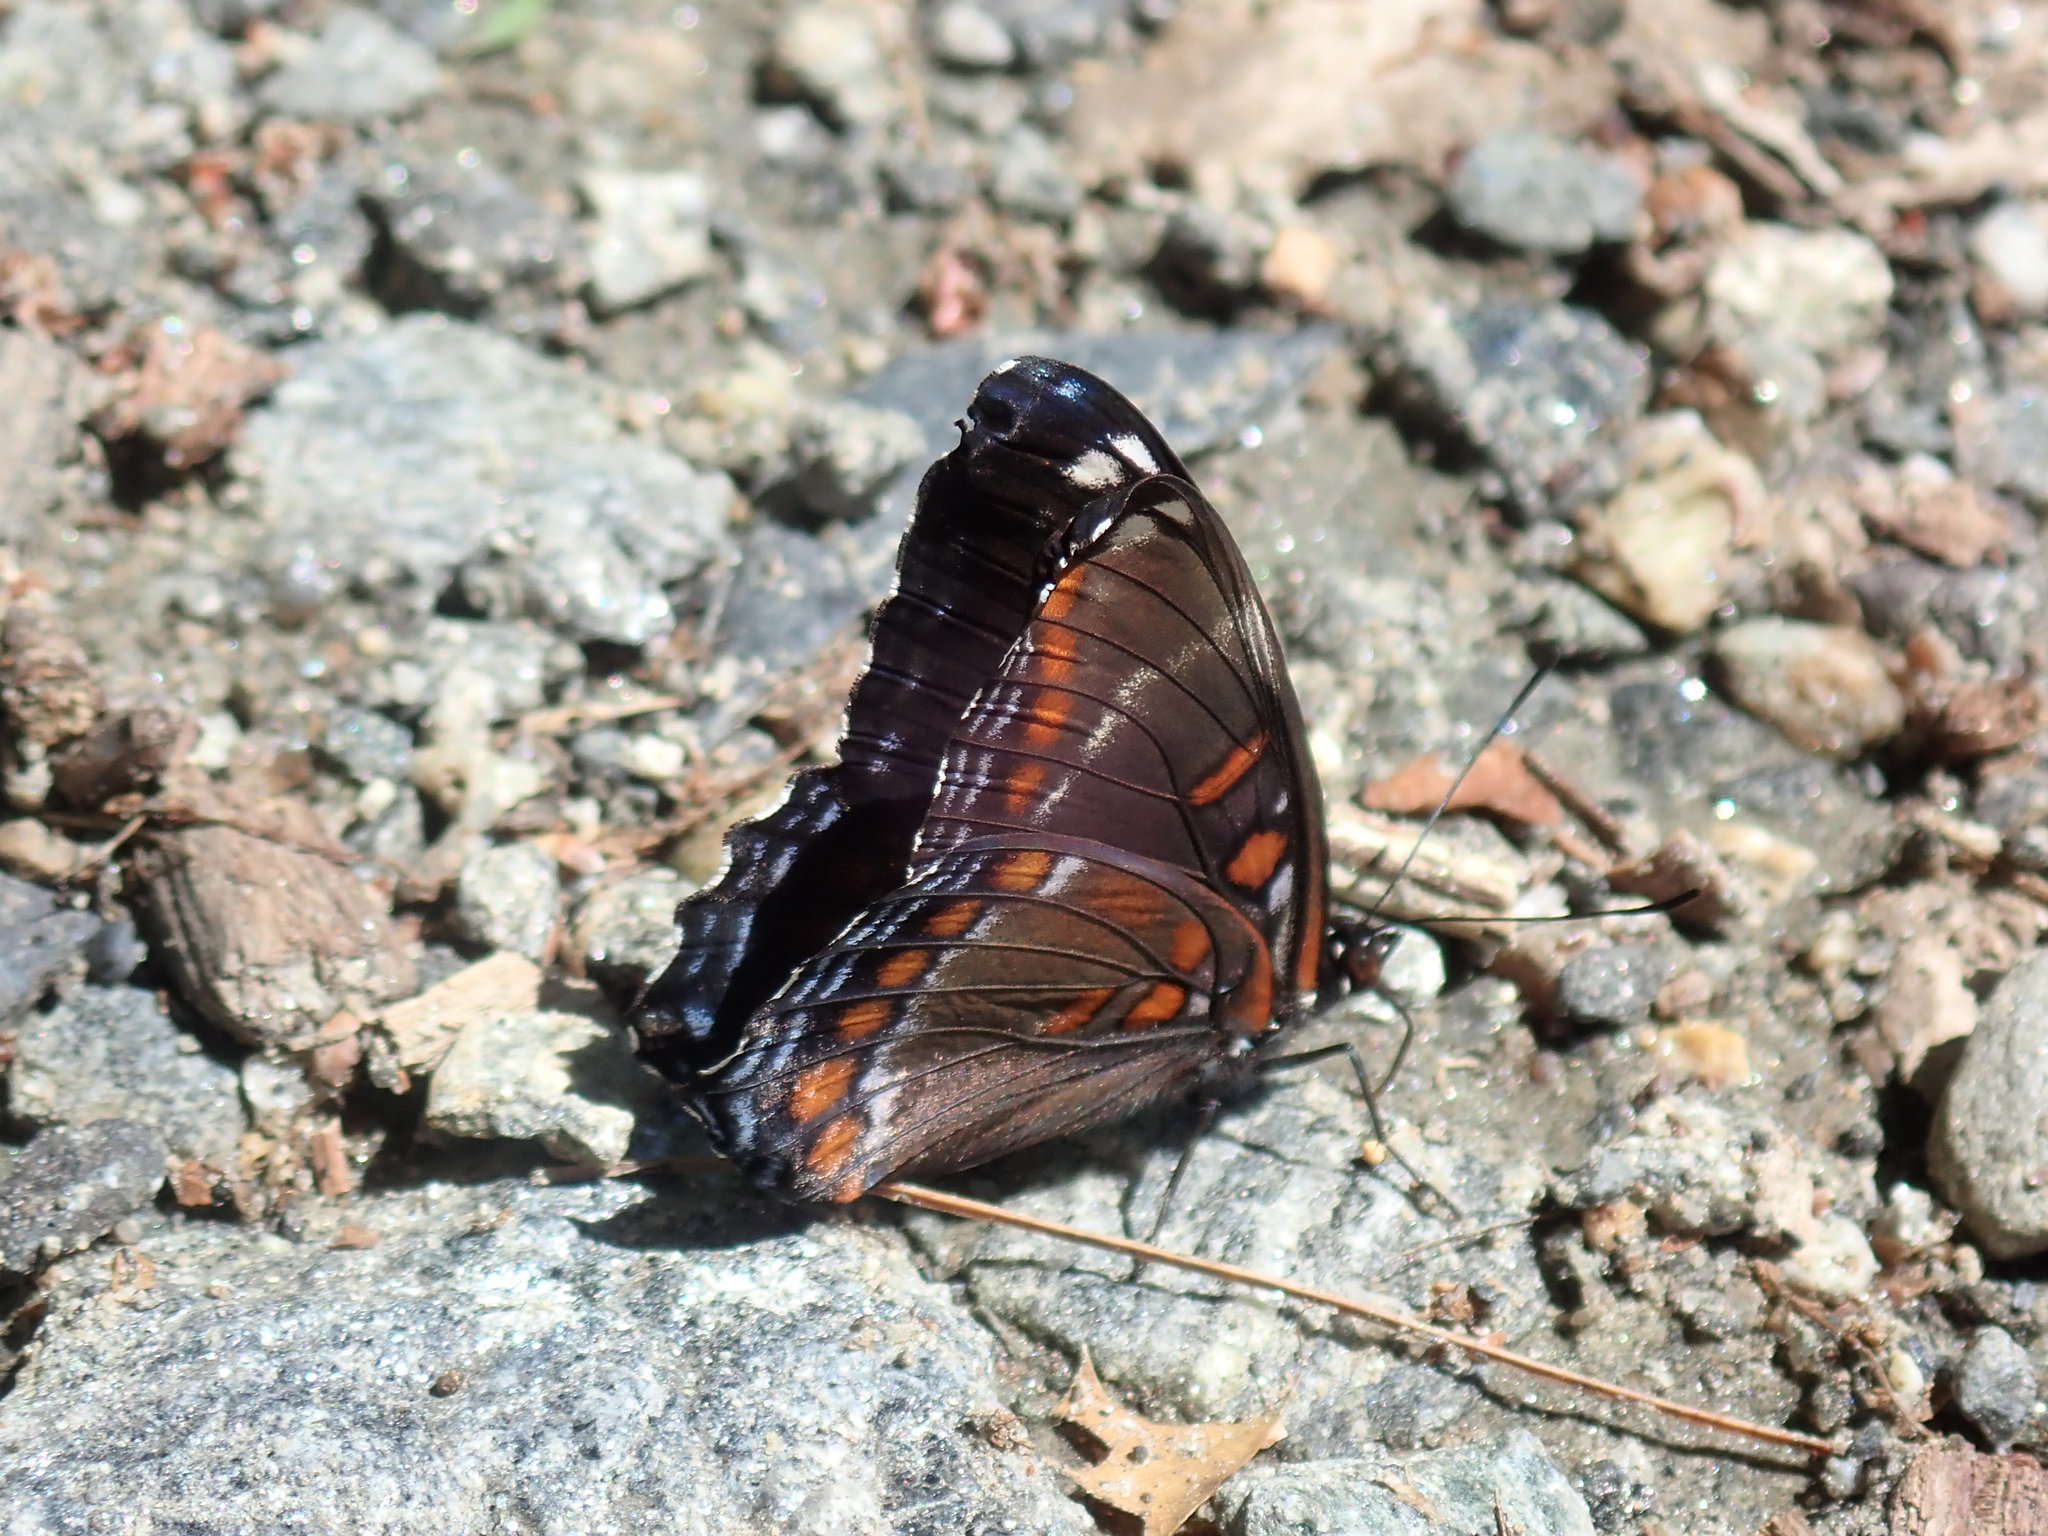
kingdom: Animalia
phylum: Arthropoda
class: Insecta
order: Lepidoptera
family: Nymphalidae
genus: Limenitis
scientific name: Limenitis arthemis
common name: Red-spotted admiral
